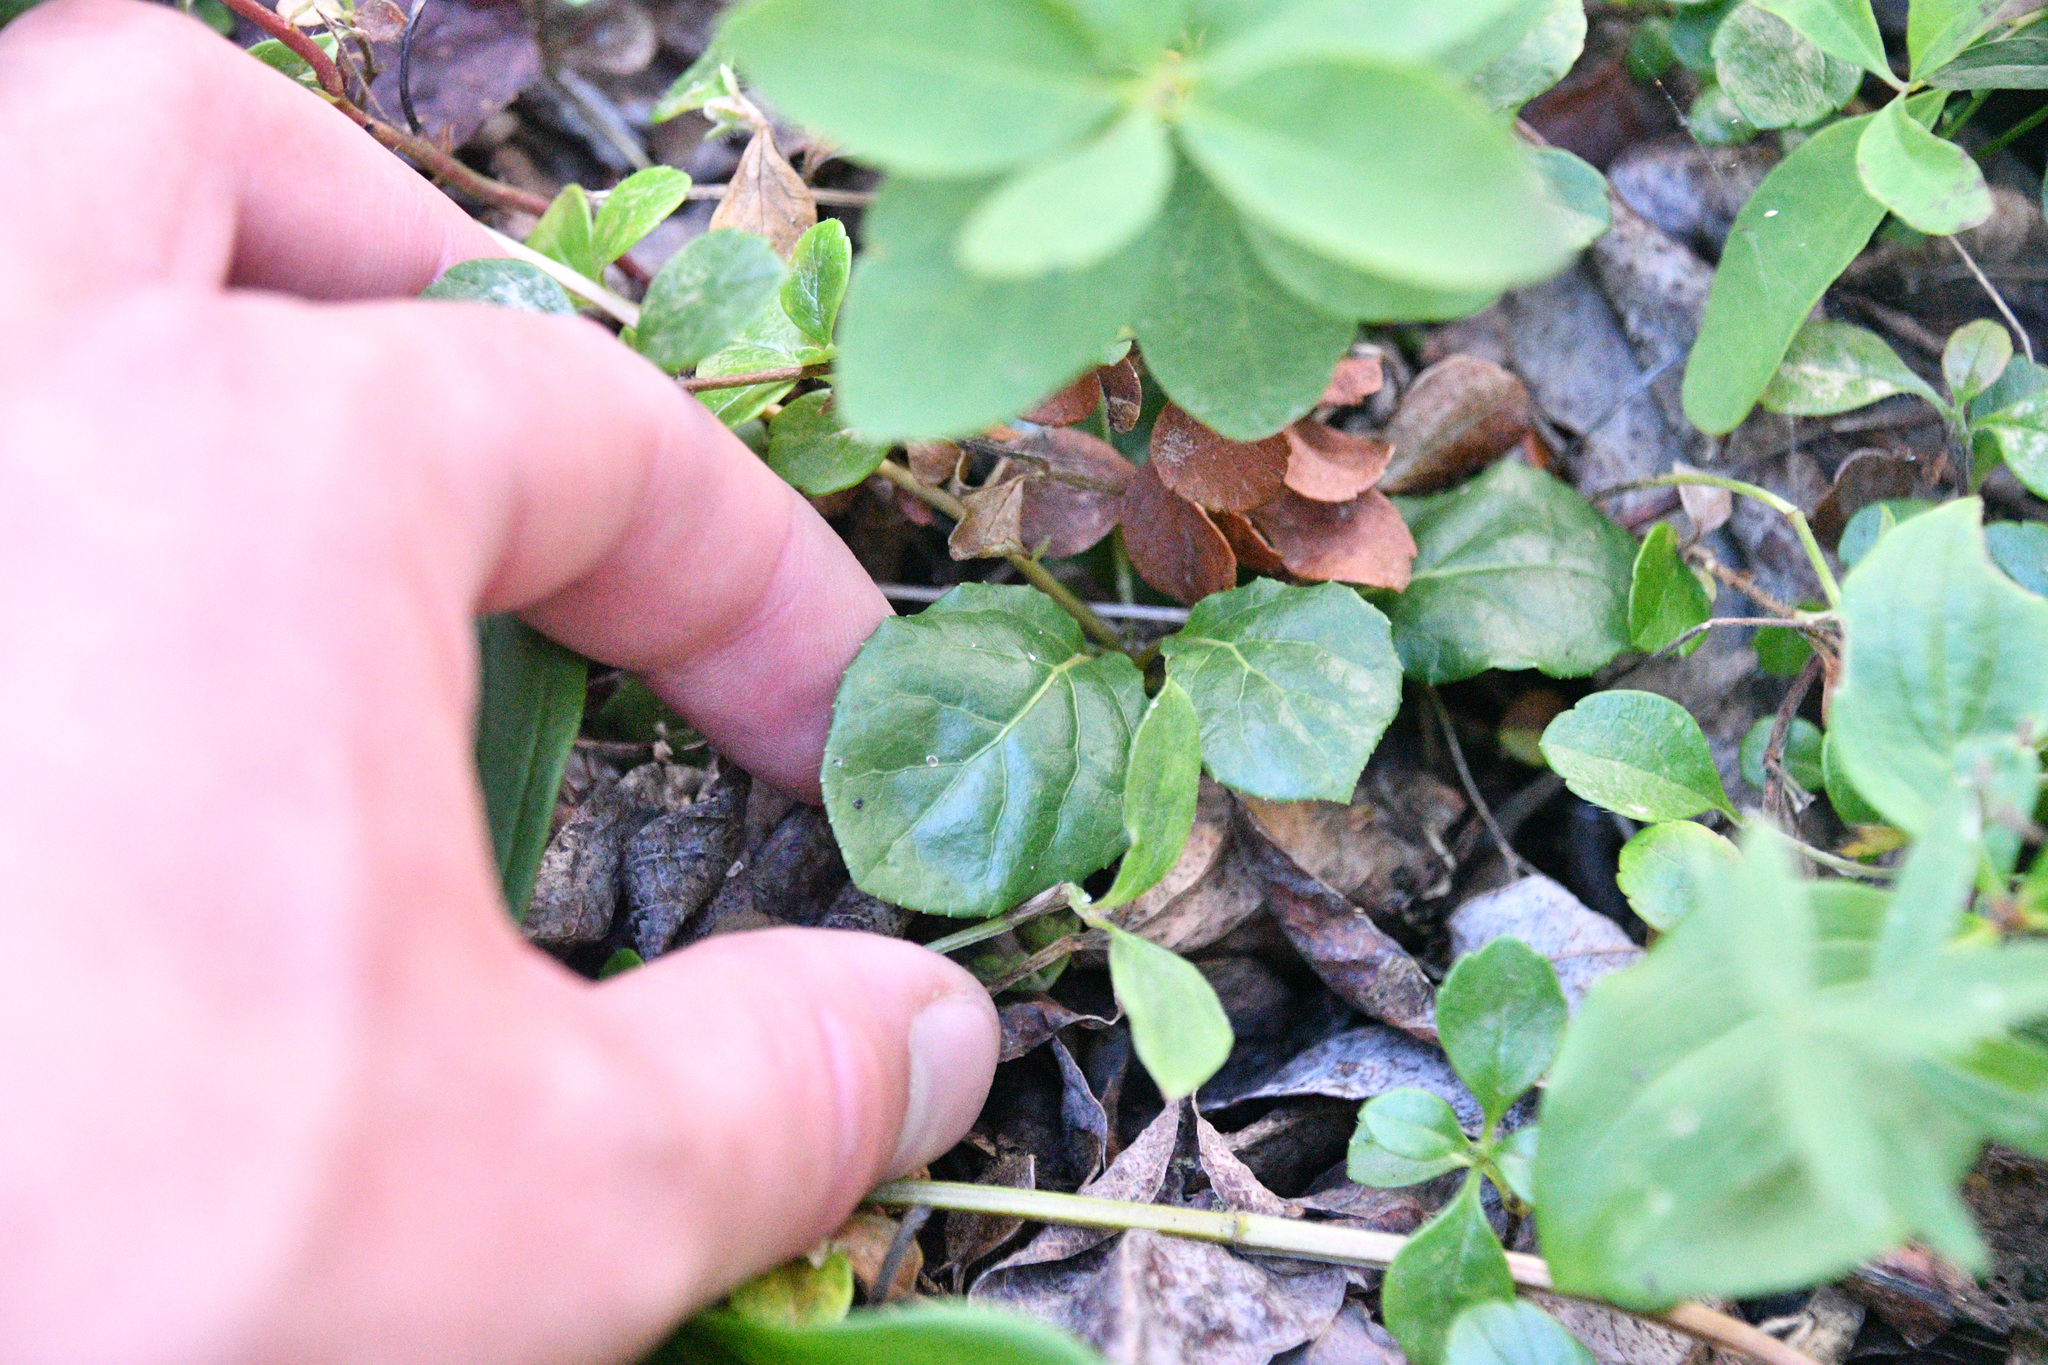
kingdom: Plantae
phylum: Tracheophyta
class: Magnoliopsida
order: Ericales
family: Ericaceae
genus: Orthilia
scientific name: Orthilia secunda
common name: One-sided orthilia
